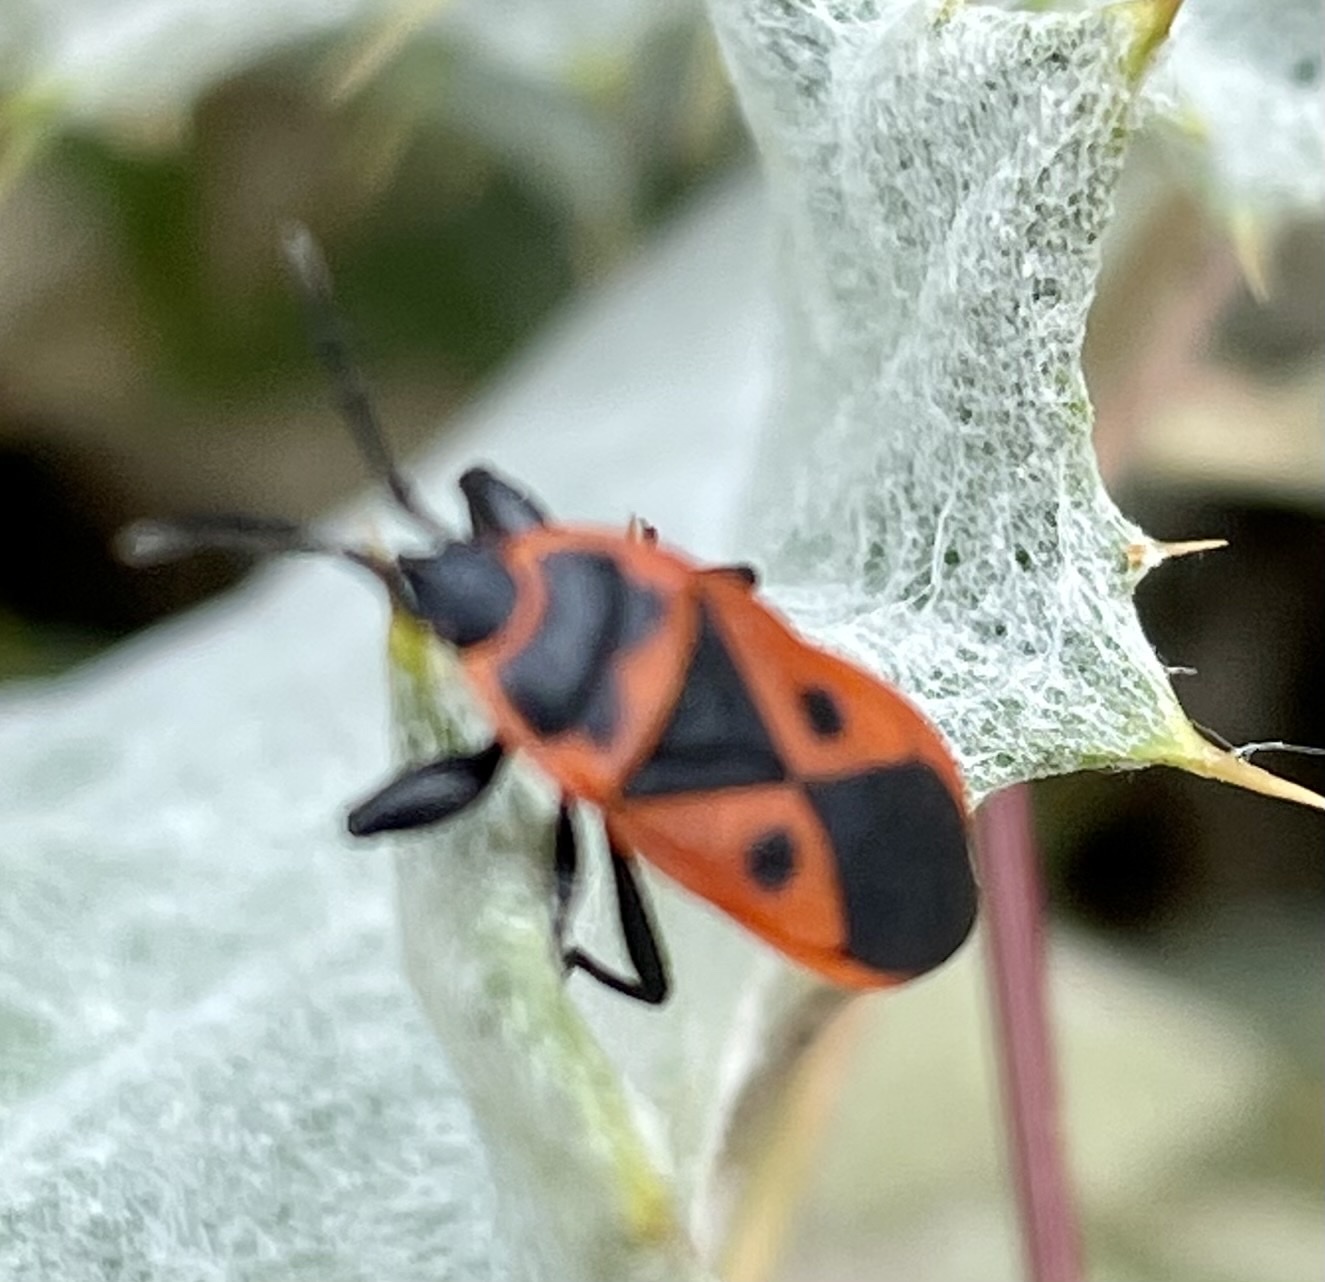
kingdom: Animalia
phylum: Arthropoda
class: Insecta
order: Hemiptera
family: Pyrrhocoridae
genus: Scantius
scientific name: Scantius aegyptius
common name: Red bug
